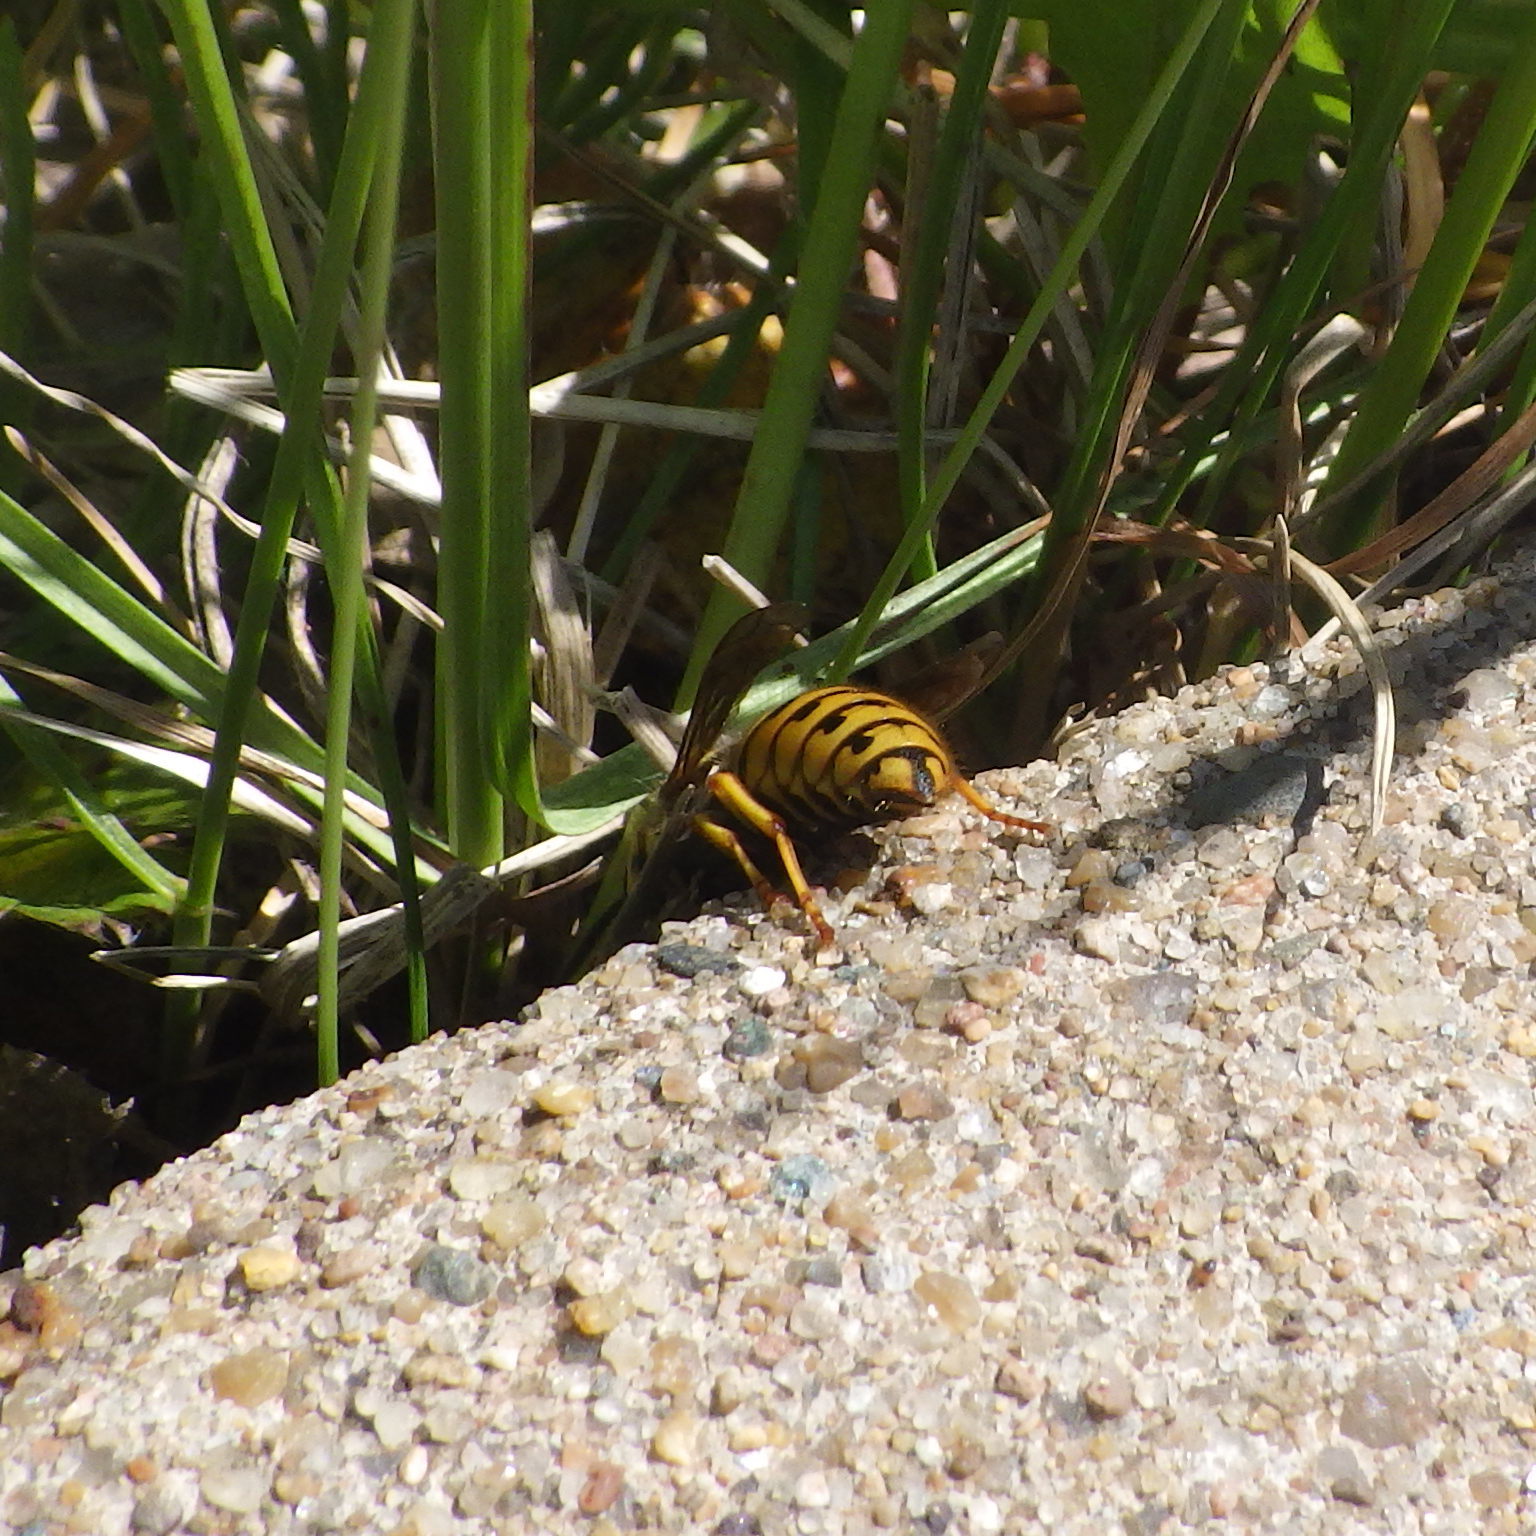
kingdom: Animalia
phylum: Arthropoda
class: Insecta
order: Hymenoptera
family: Vespidae
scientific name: Vespidae
